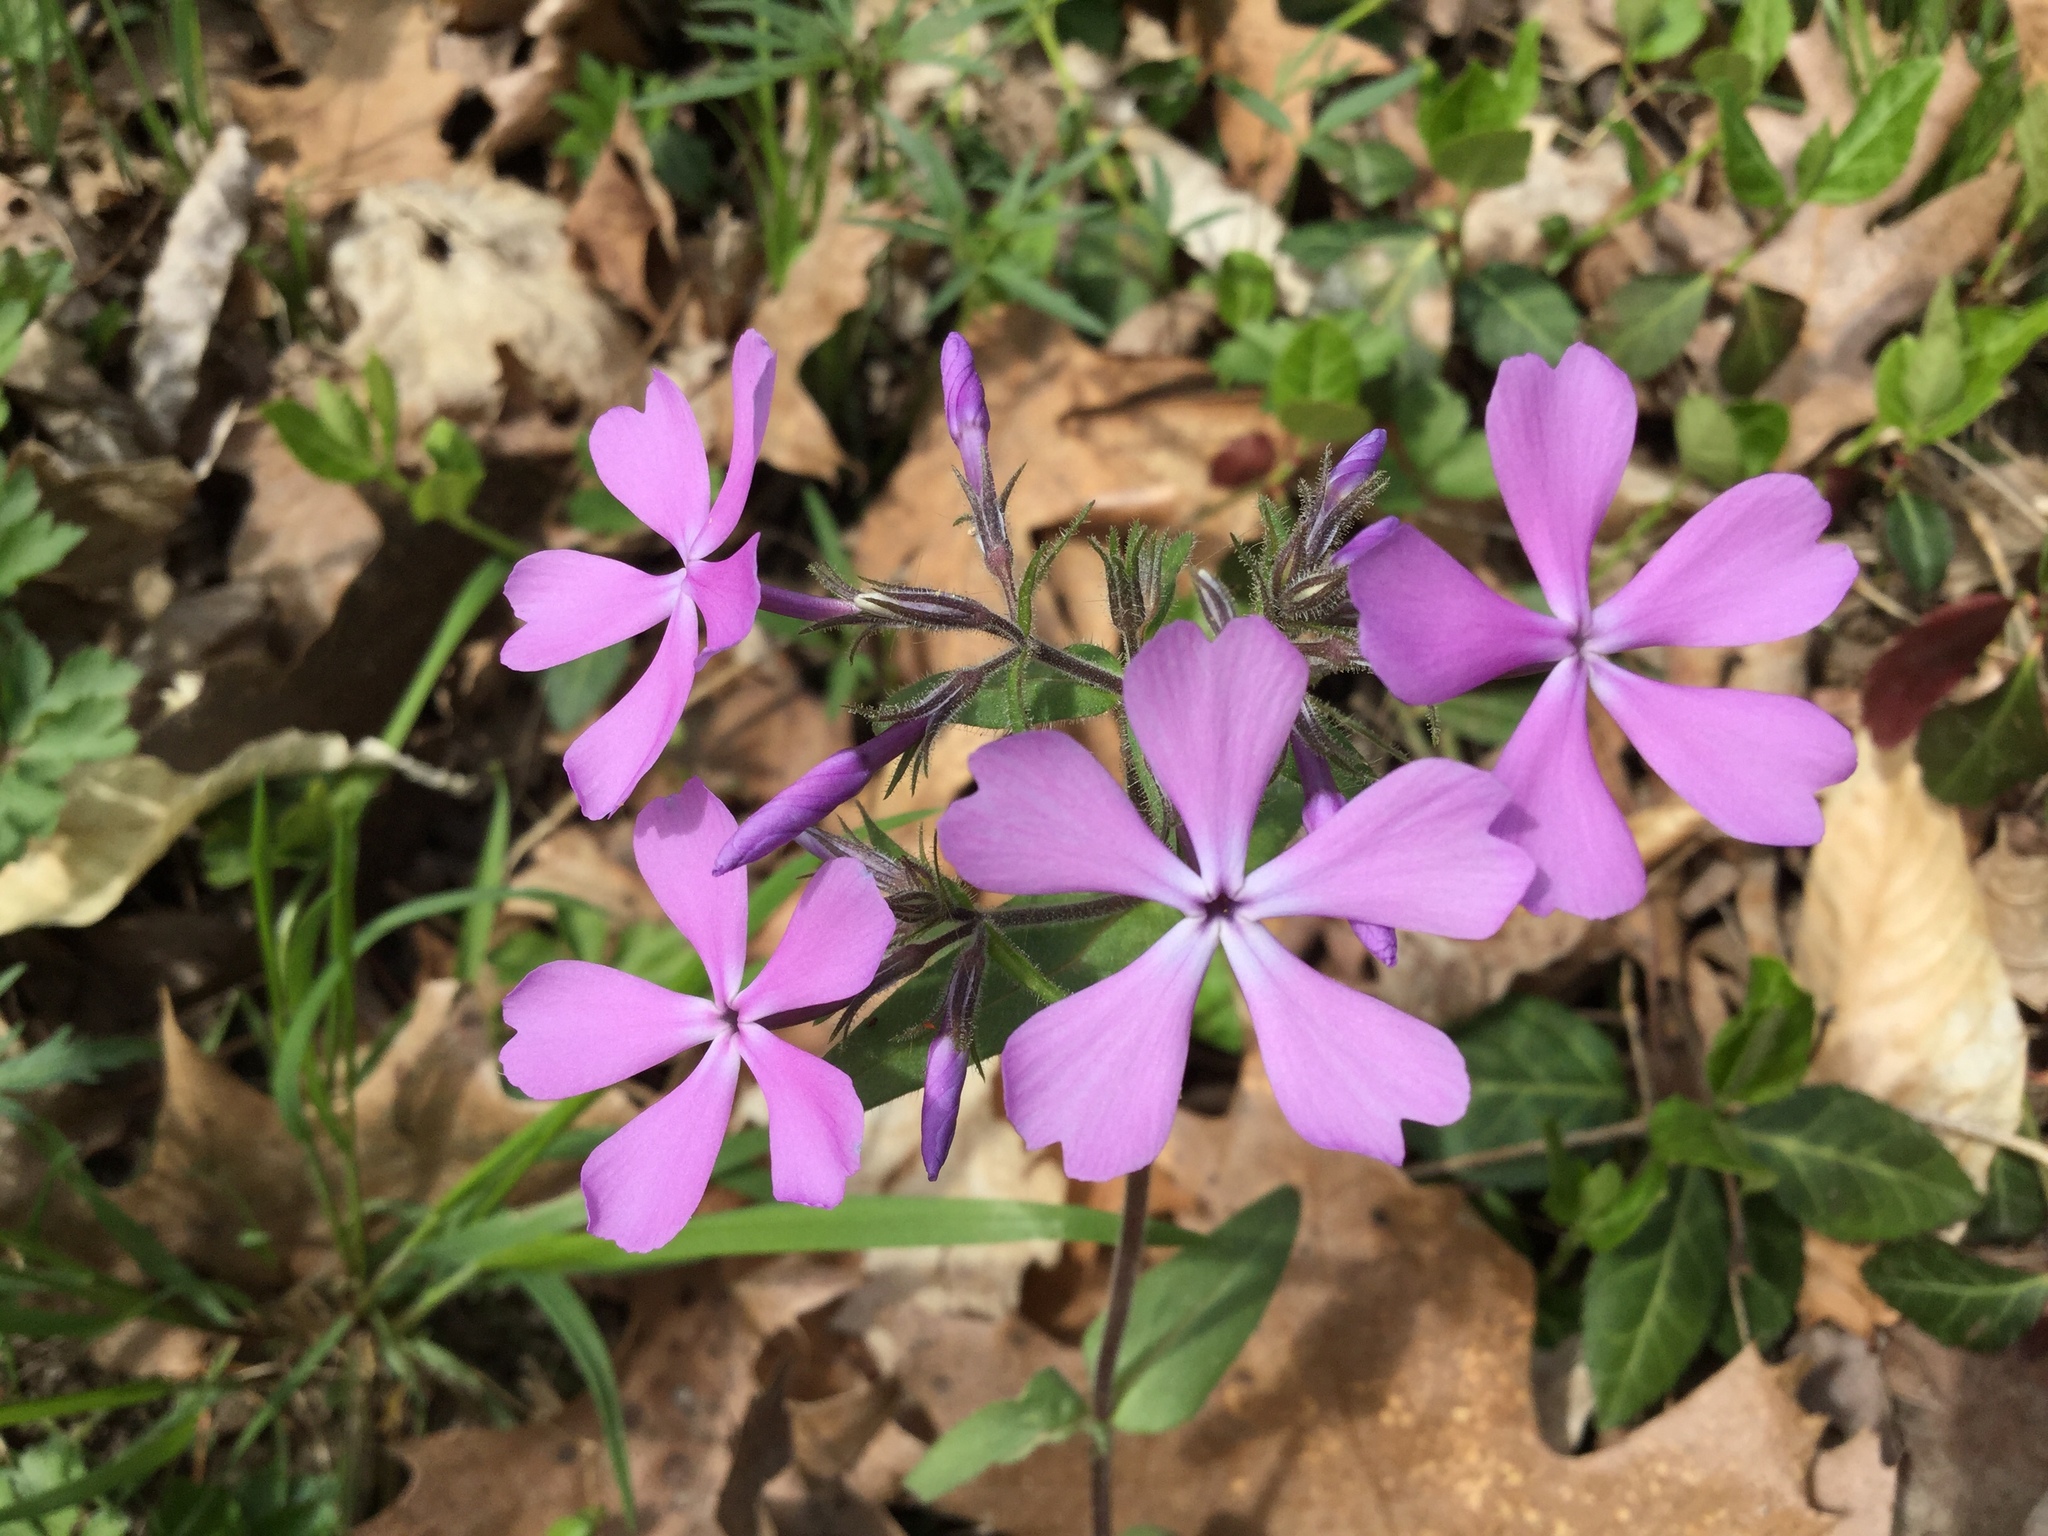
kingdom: Plantae
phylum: Tracheophyta
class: Magnoliopsida
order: Ericales
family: Polemoniaceae
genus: Phlox
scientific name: Phlox divaricata
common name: Blue phlox
